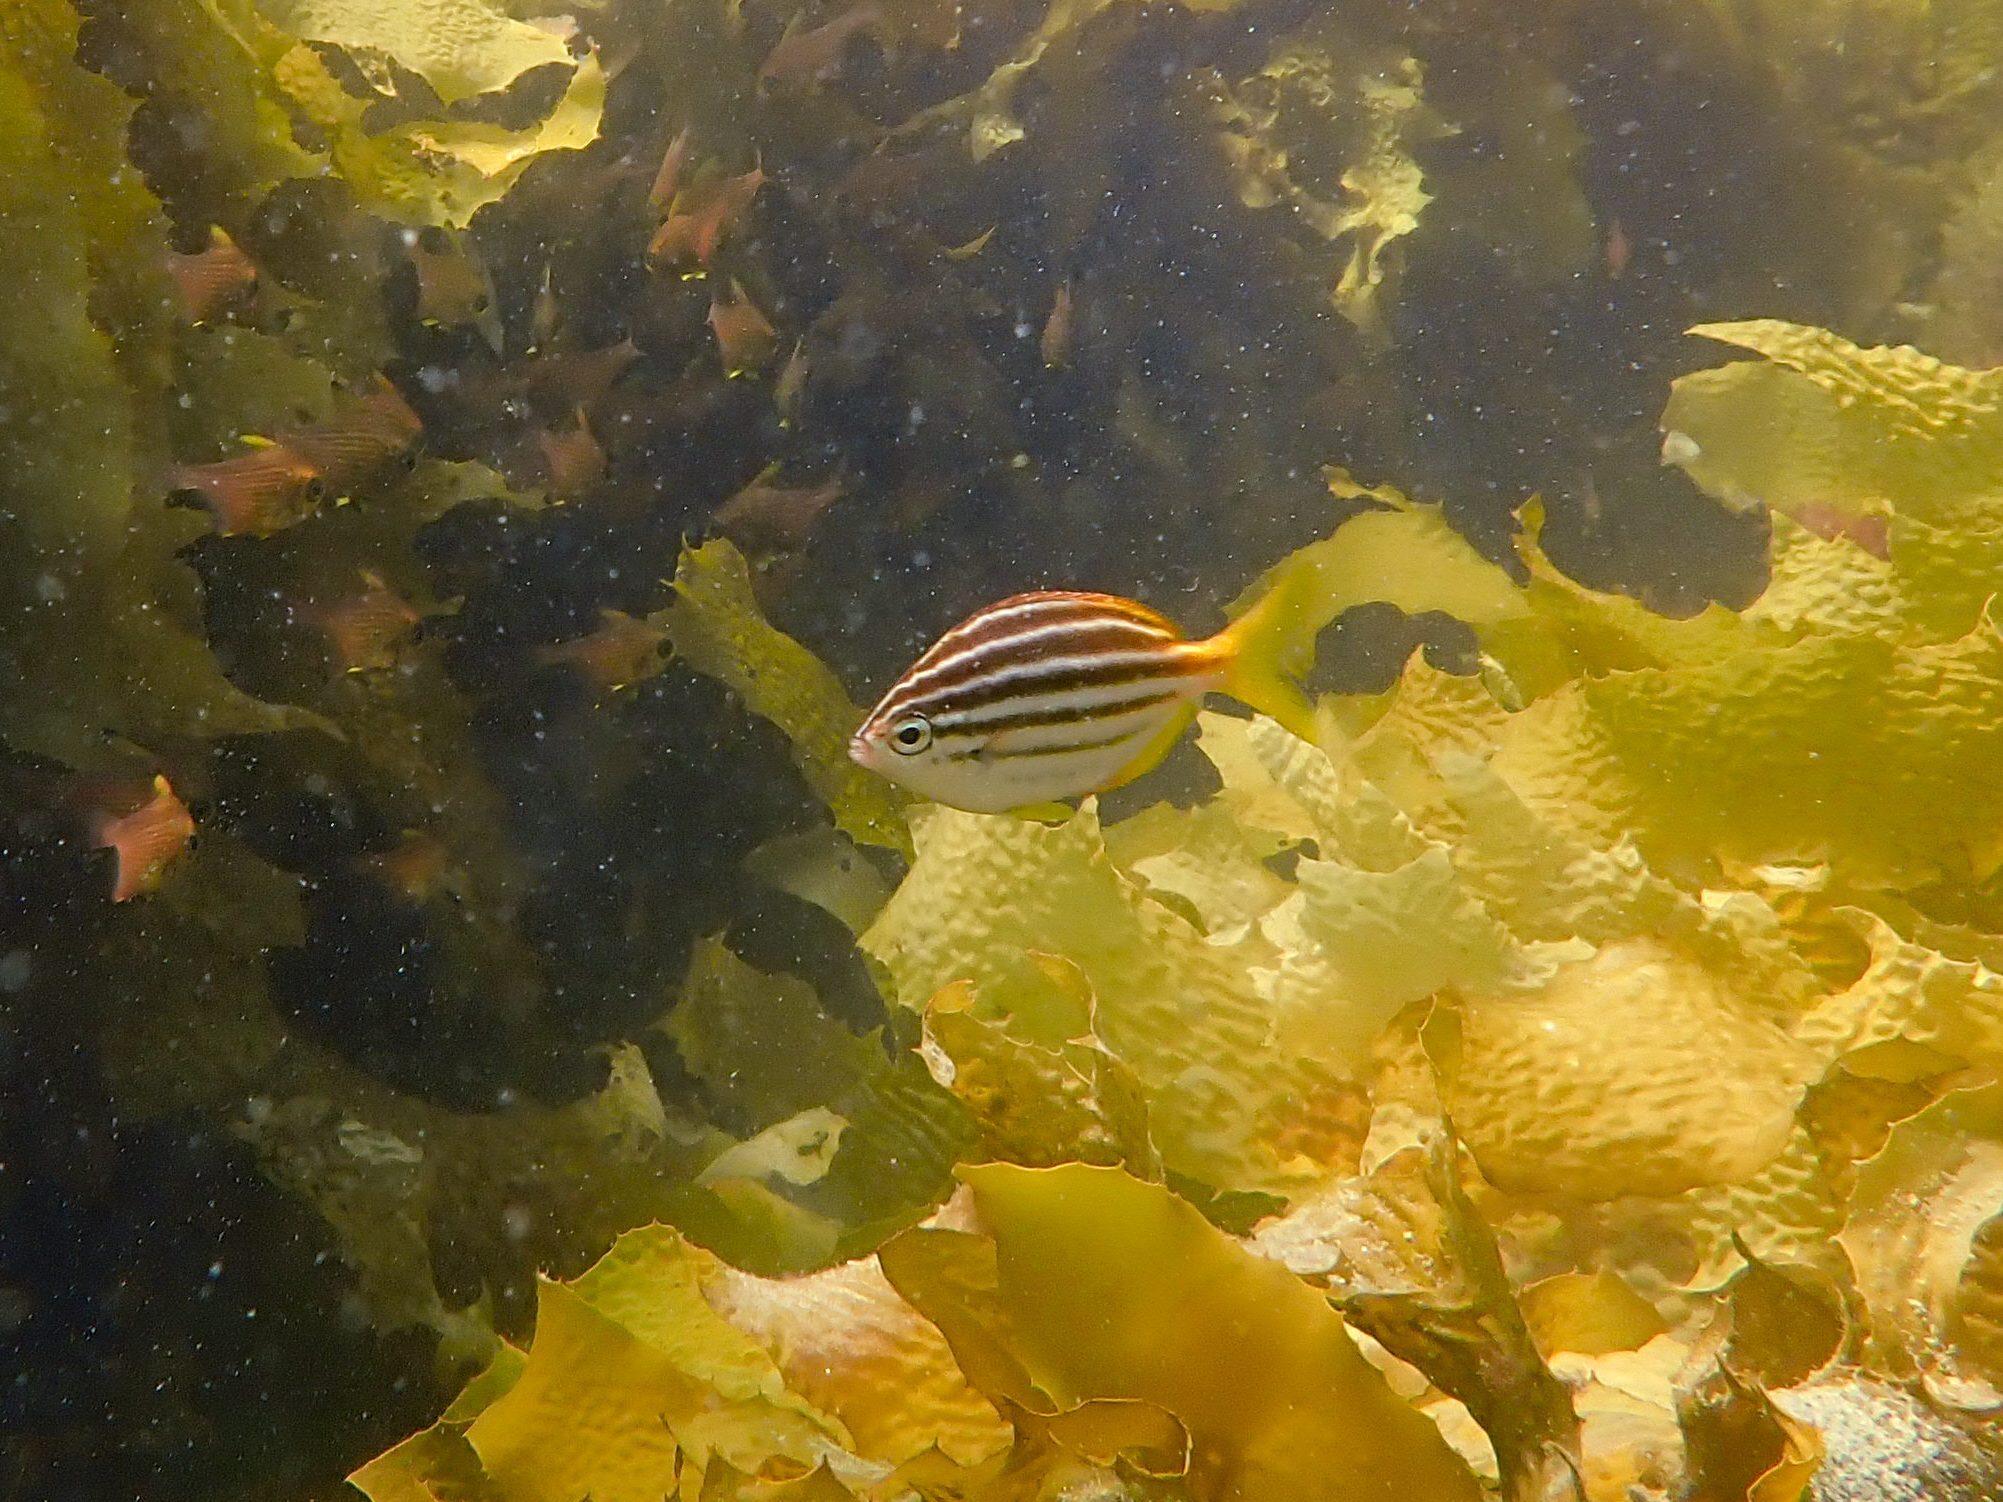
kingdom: Animalia
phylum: Chordata
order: Perciformes
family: Kyphosidae
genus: Atypichthys
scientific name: Atypichthys strigatus
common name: Australian mado
